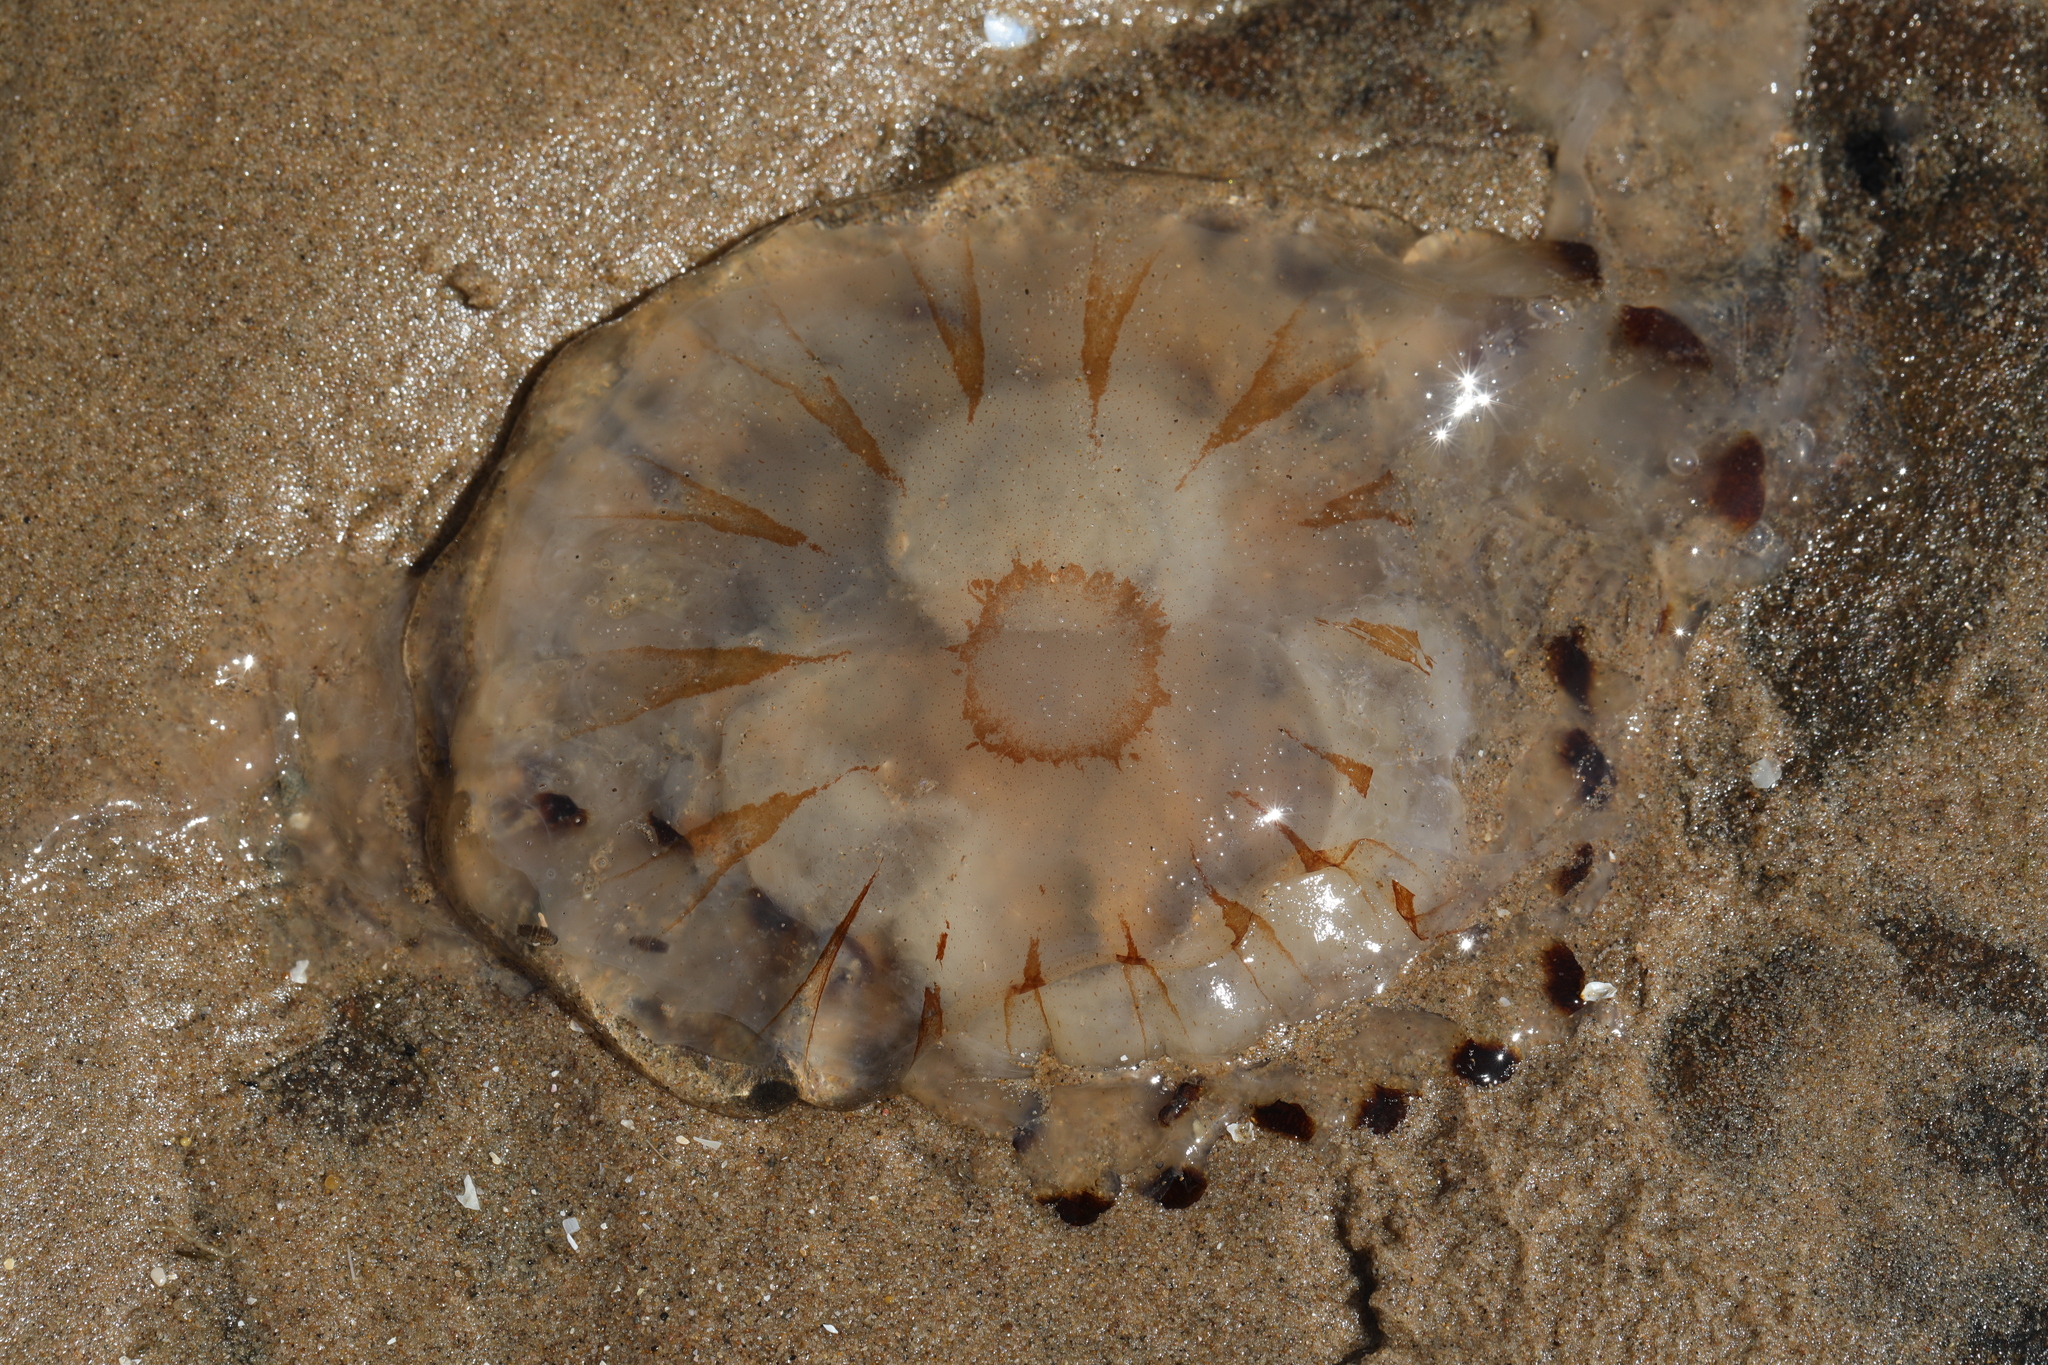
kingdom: Animalia
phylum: Cnidaria
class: Scyphozoa
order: Semaeostomeae
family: Pelagiidae
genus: Chrysaora
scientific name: Chrysaora hysoscella
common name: Compass jellyfish
